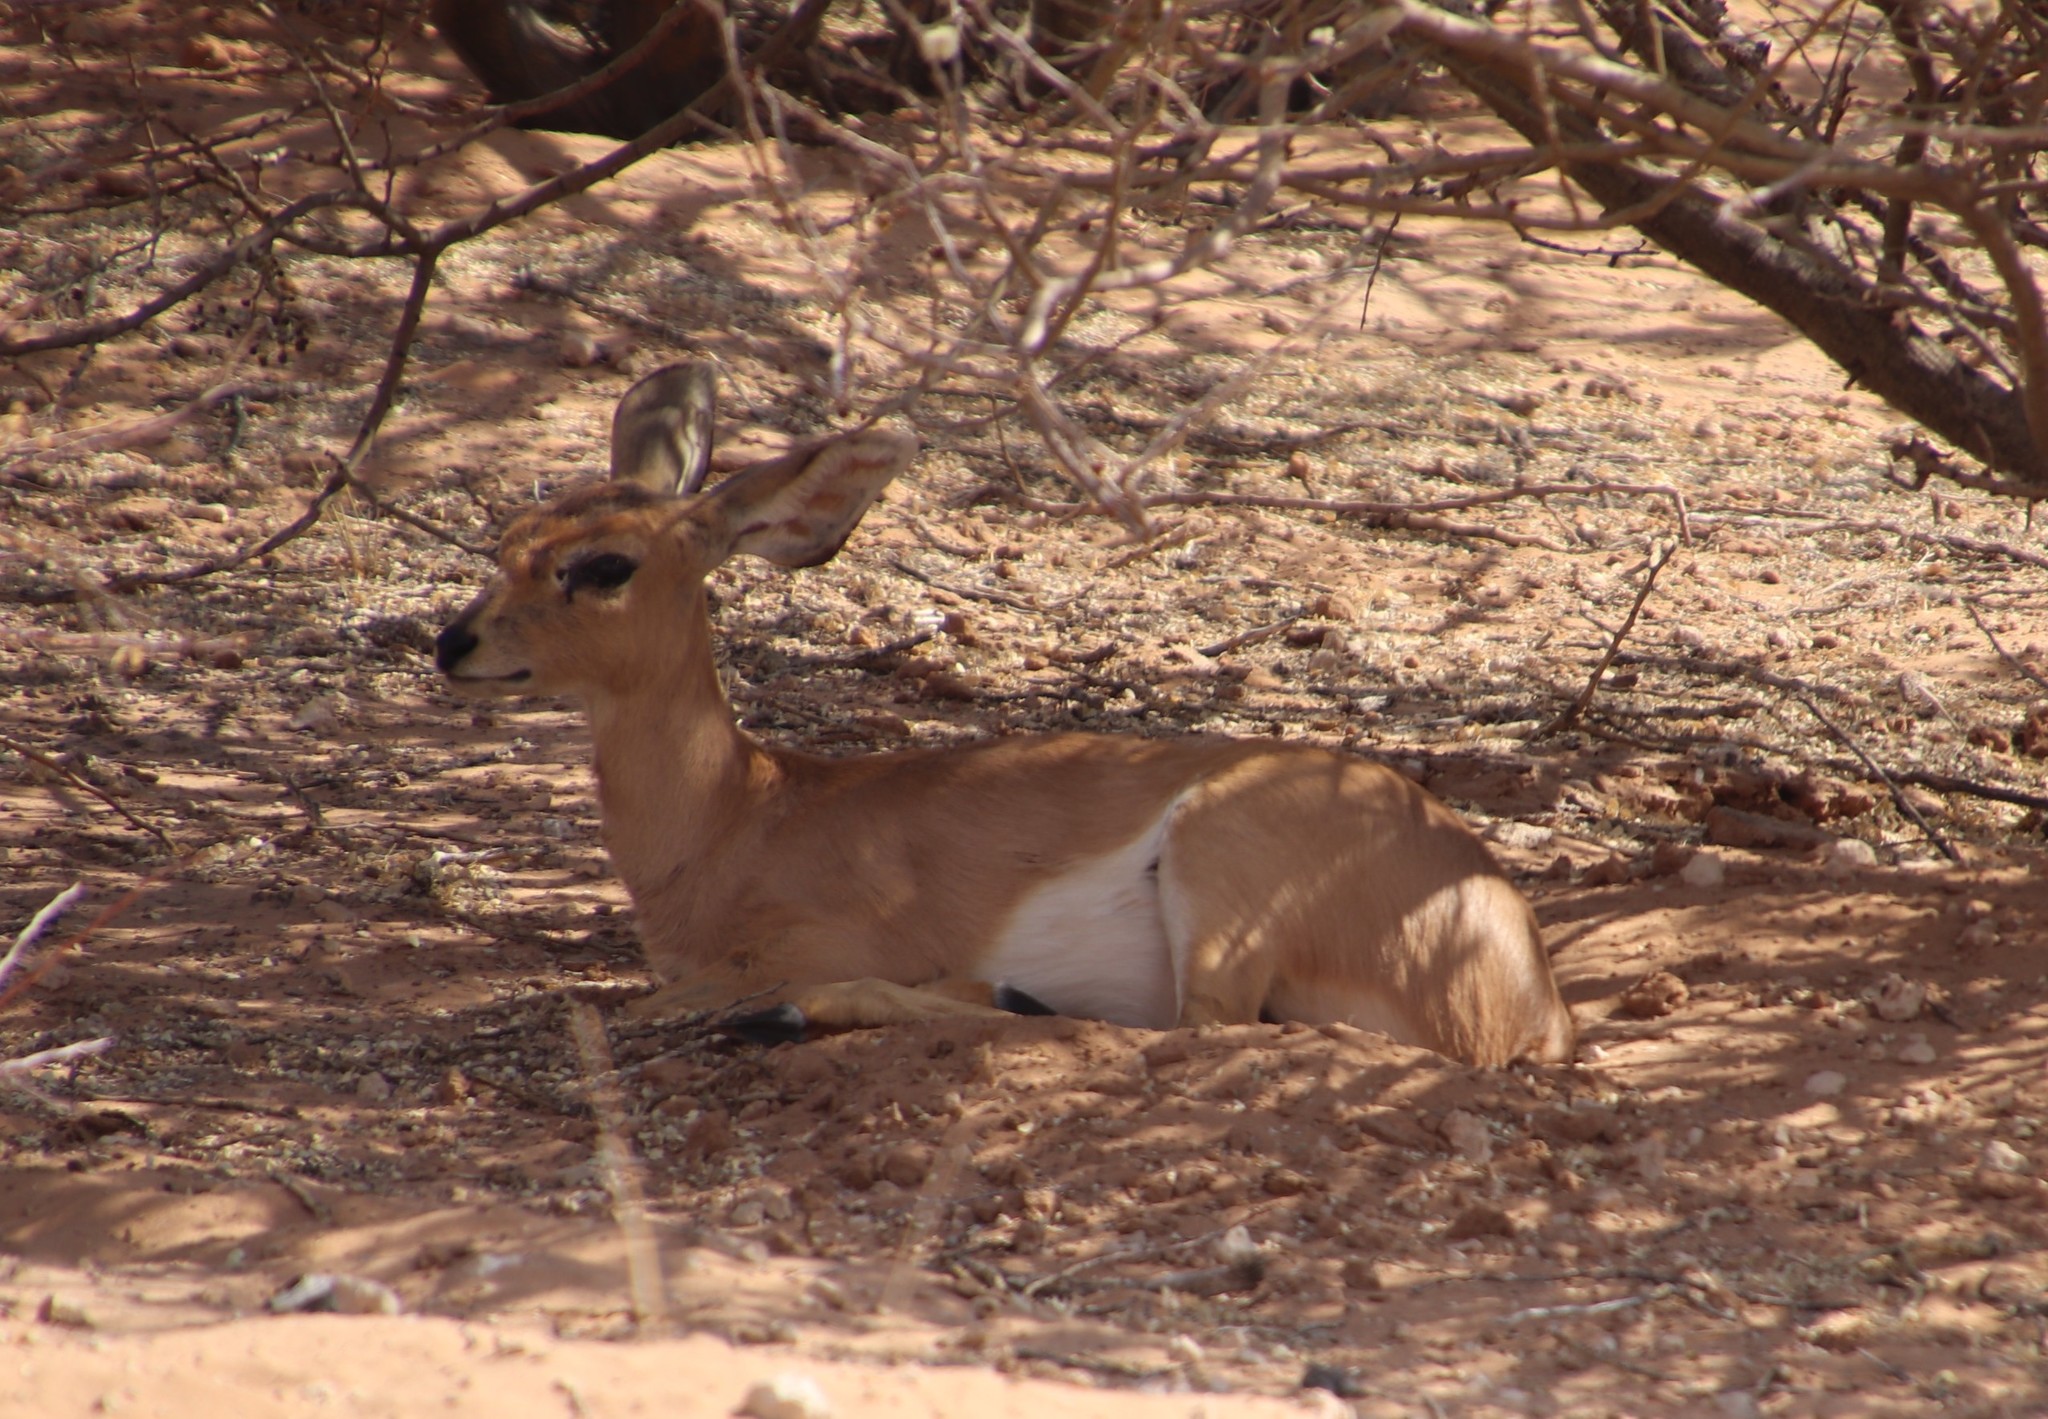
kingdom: Animalia
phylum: Chordata
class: Mammalia
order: Artiodactyla
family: Bovidae
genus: Raphicerus
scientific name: Raphicerus campestris
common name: Steenbok
